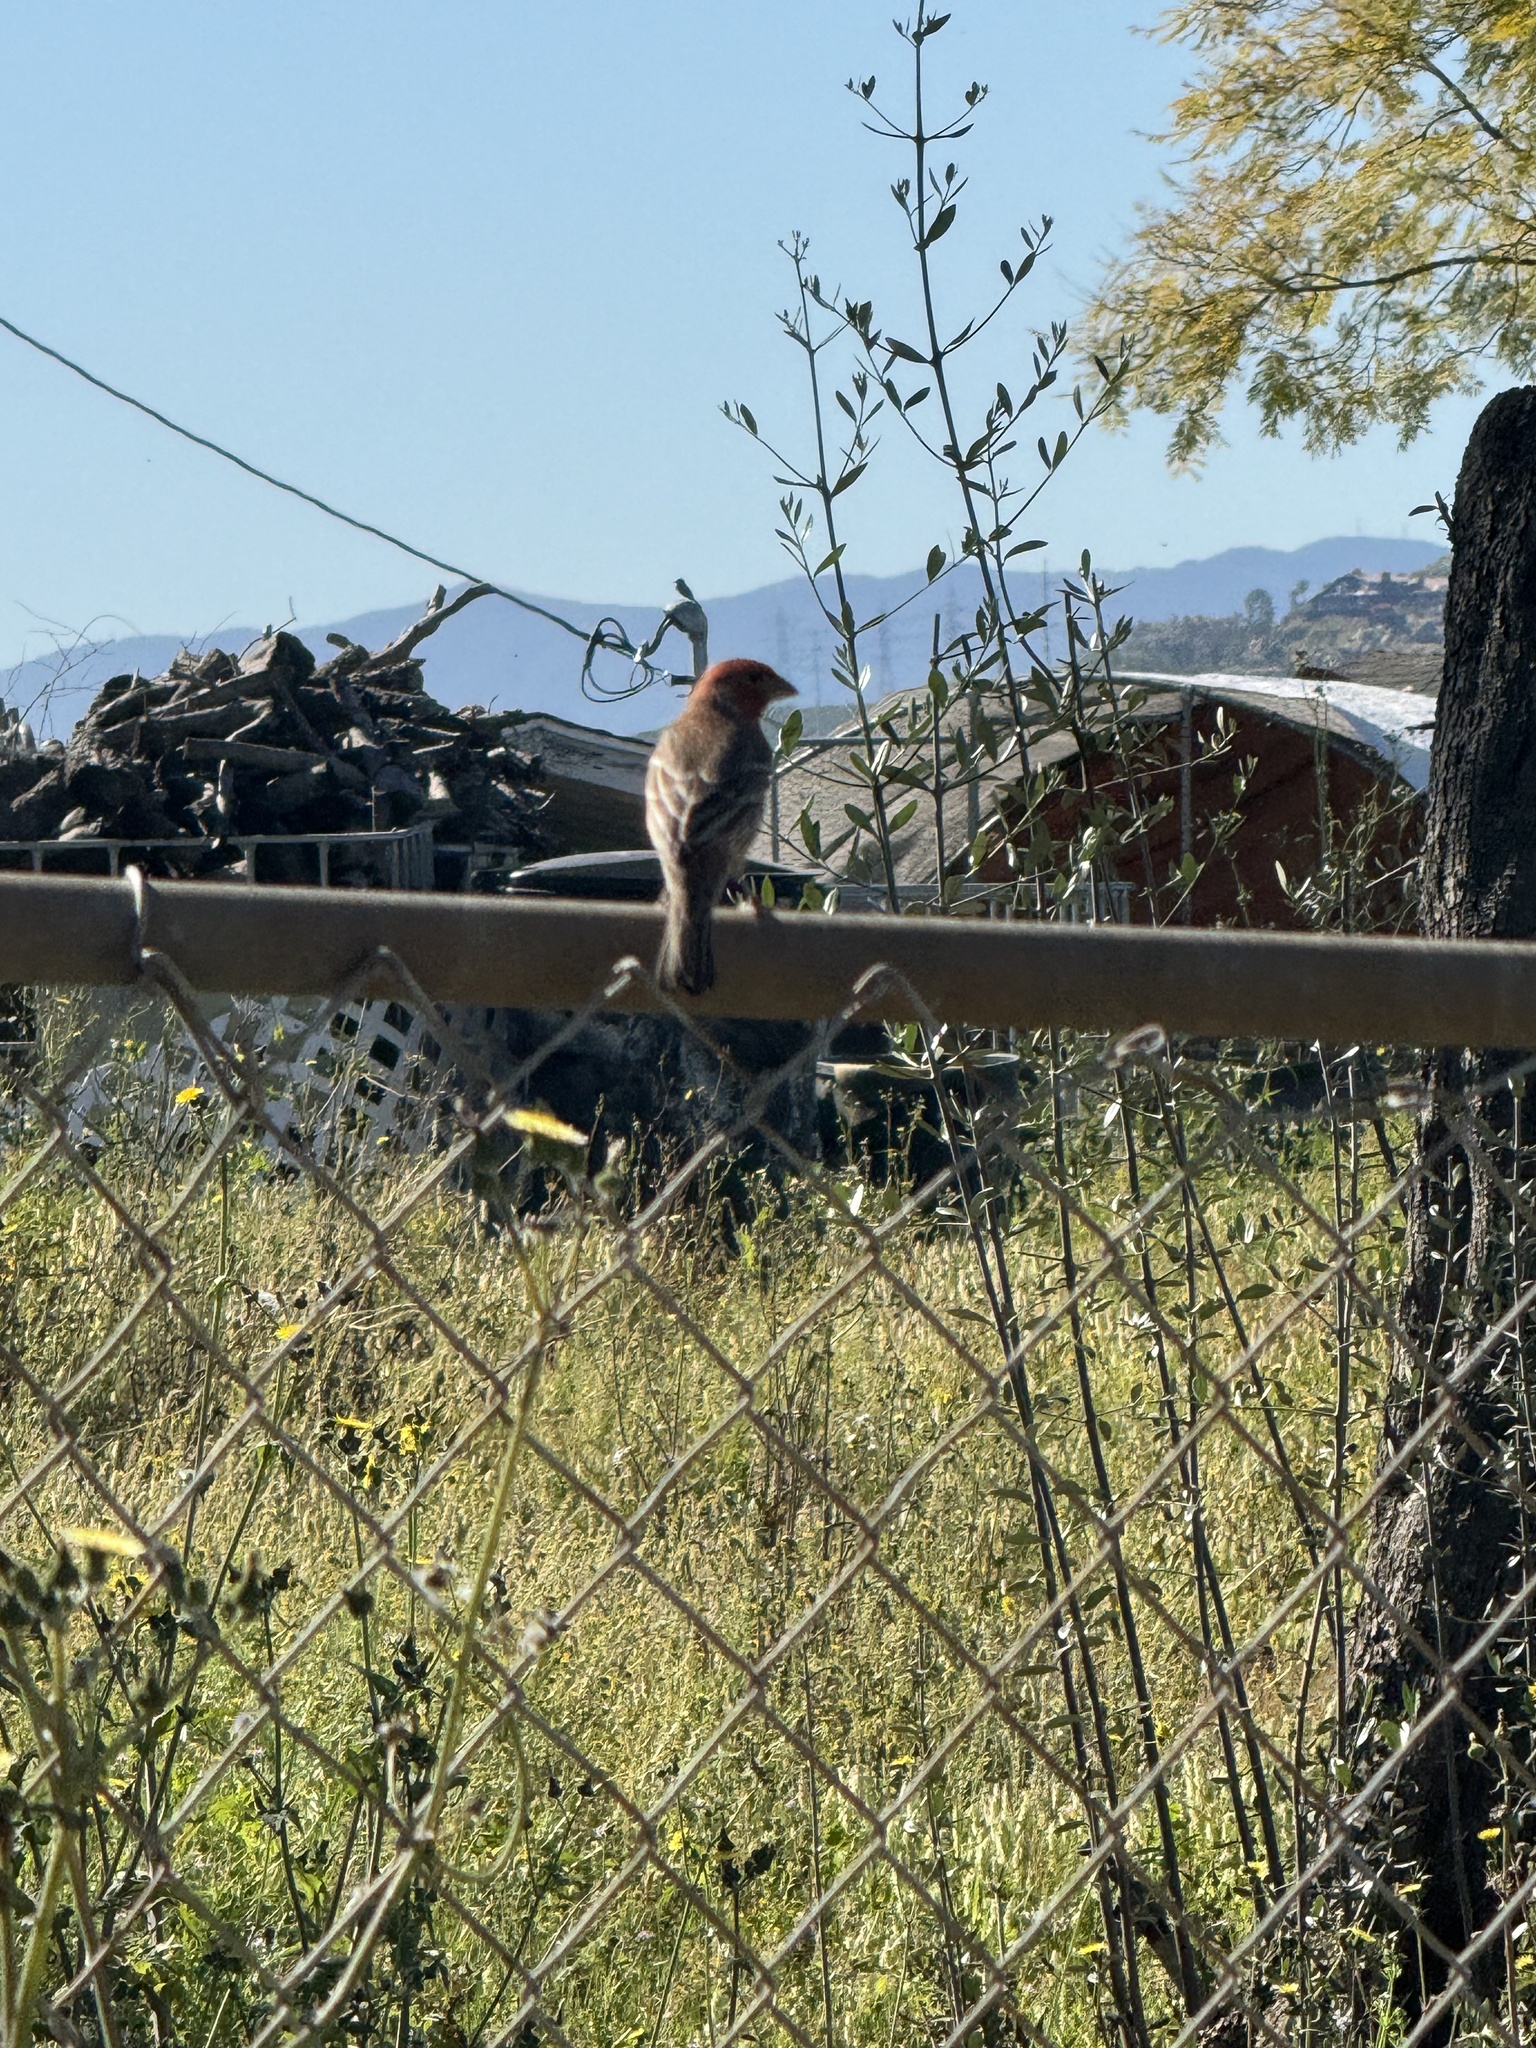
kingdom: Animalia
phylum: Chordata
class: Aves
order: Passeriformes
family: Fringillidae
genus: Haemorhous
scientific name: Haemorhous mexicanus
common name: House finch
